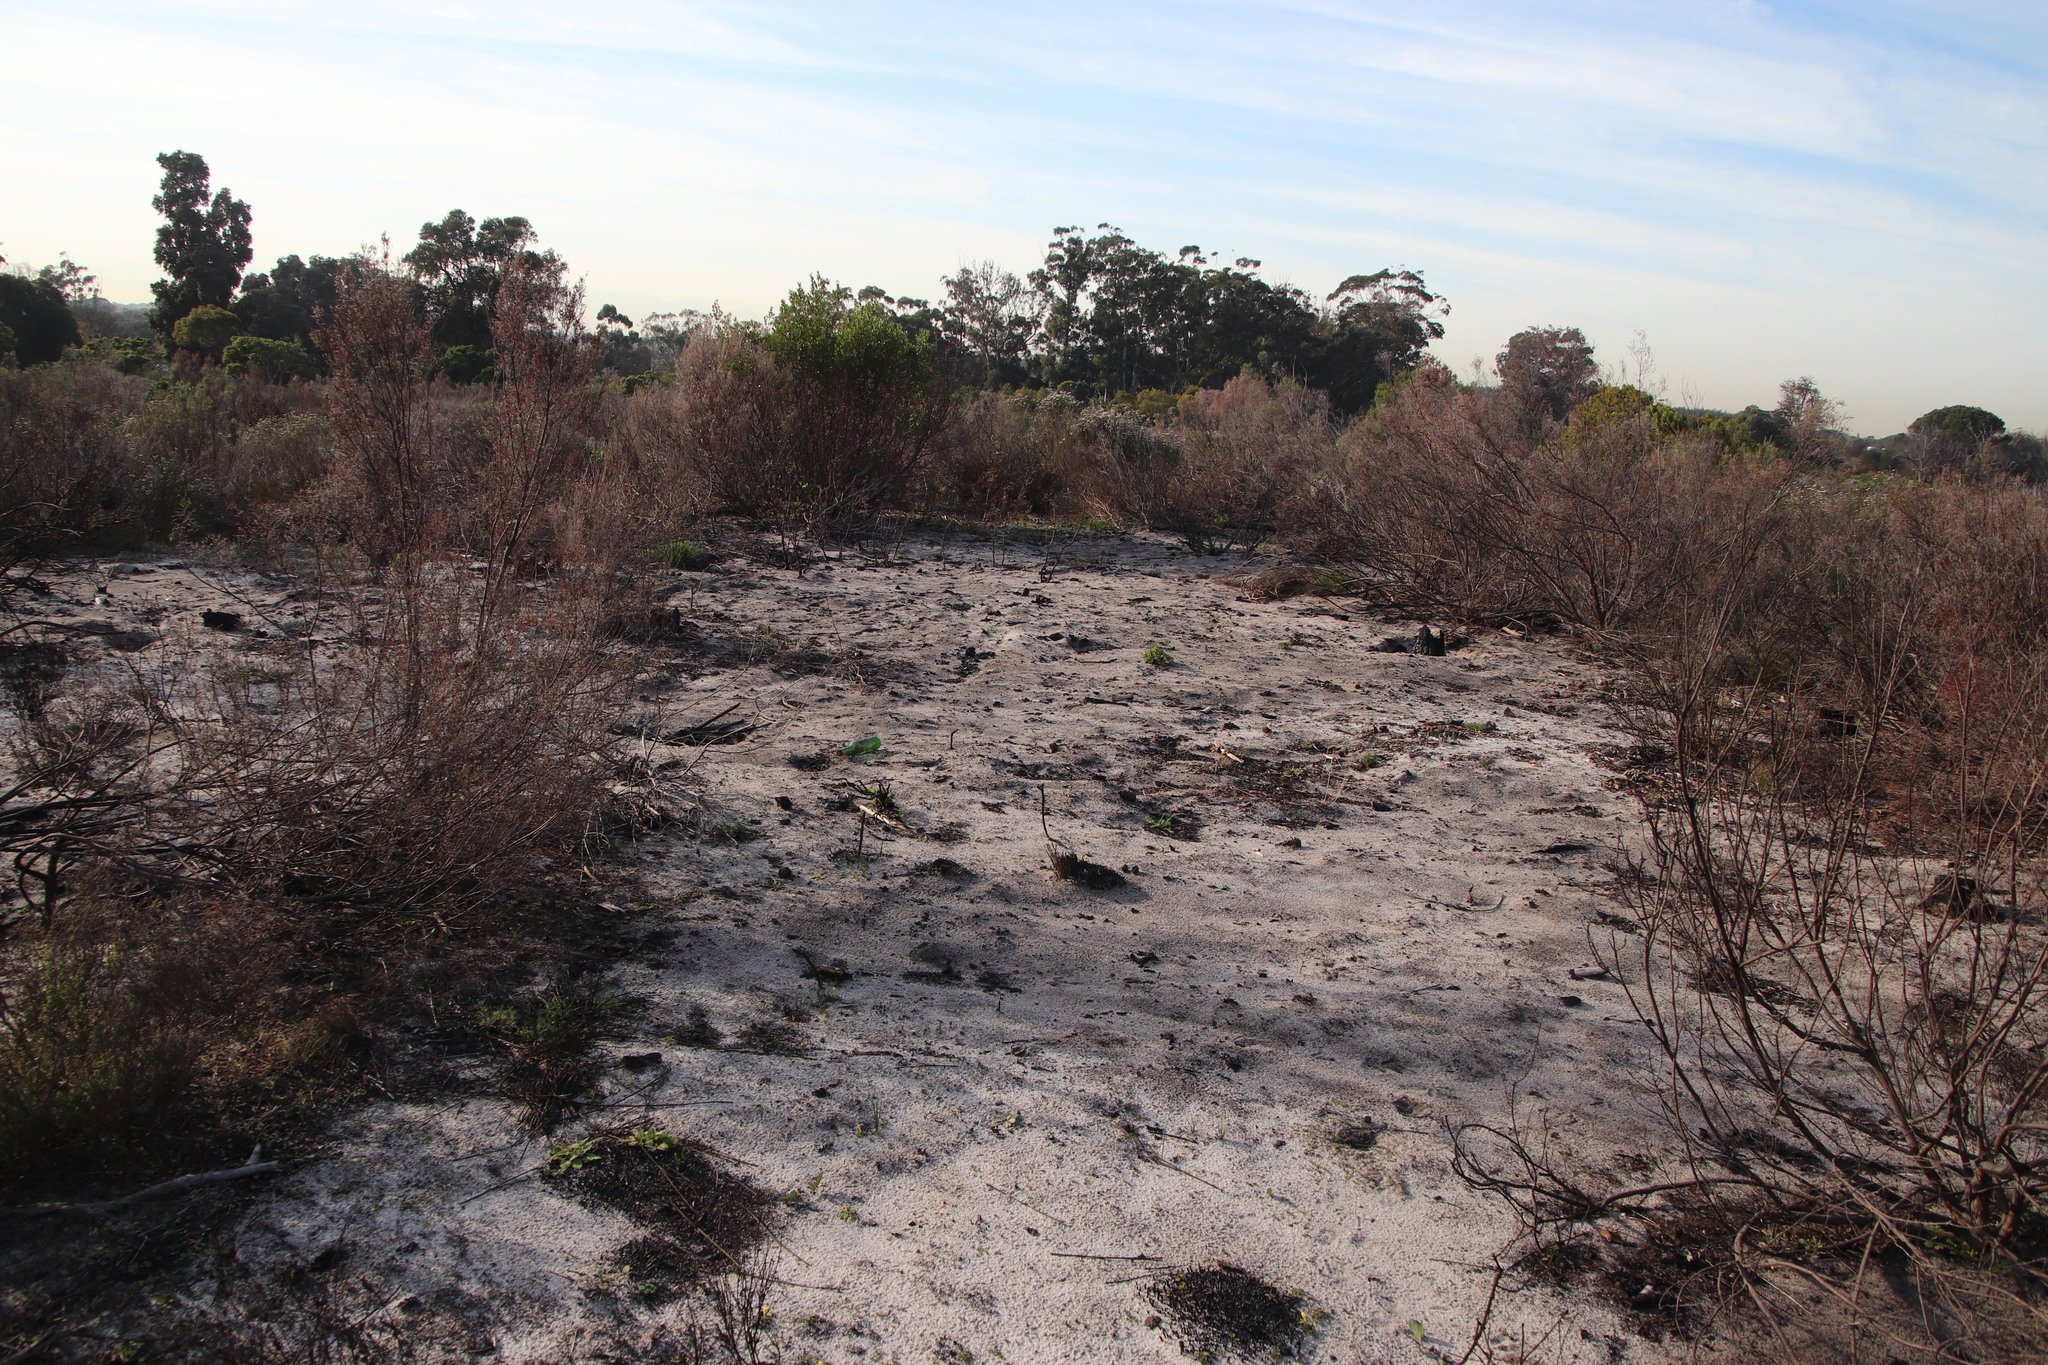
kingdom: Plantae
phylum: Tracheophyta
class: Magnoliopsida
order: Oxalidales
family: Oxalidaceae
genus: Oxalis
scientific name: Oxalis luteola
